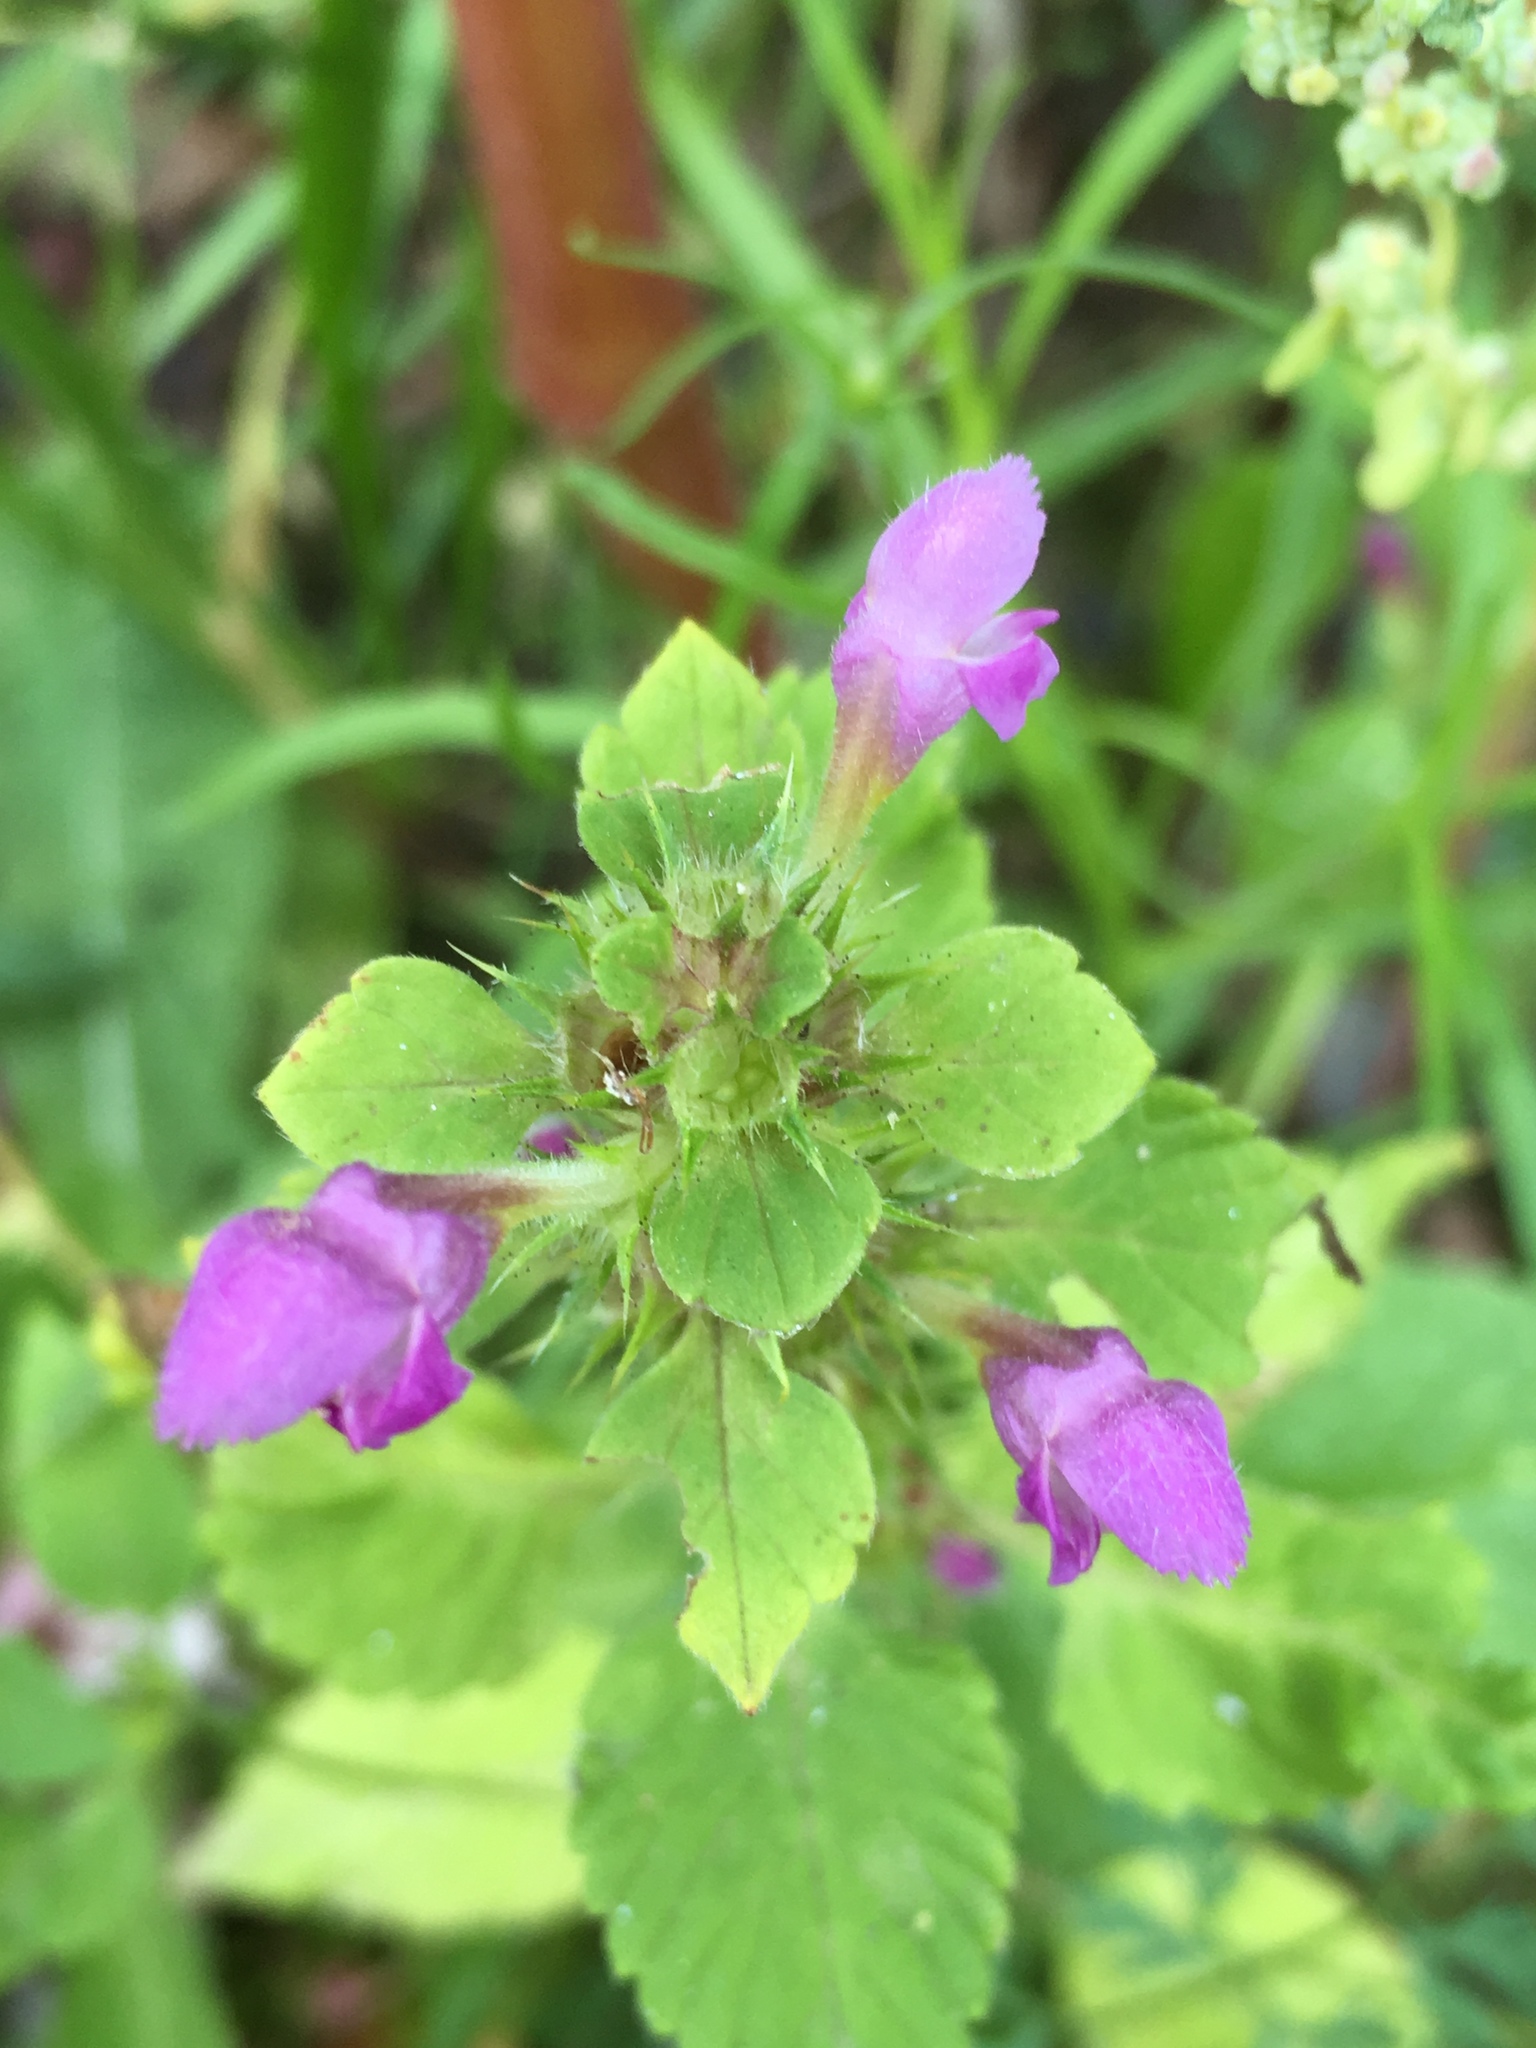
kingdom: Plantae
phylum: Tracheophyta
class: Magnoliopsida
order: Lamiales
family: Lamiaceae
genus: Galeopsis
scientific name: Galeopsis pubescens
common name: Downy hemp-nettle
